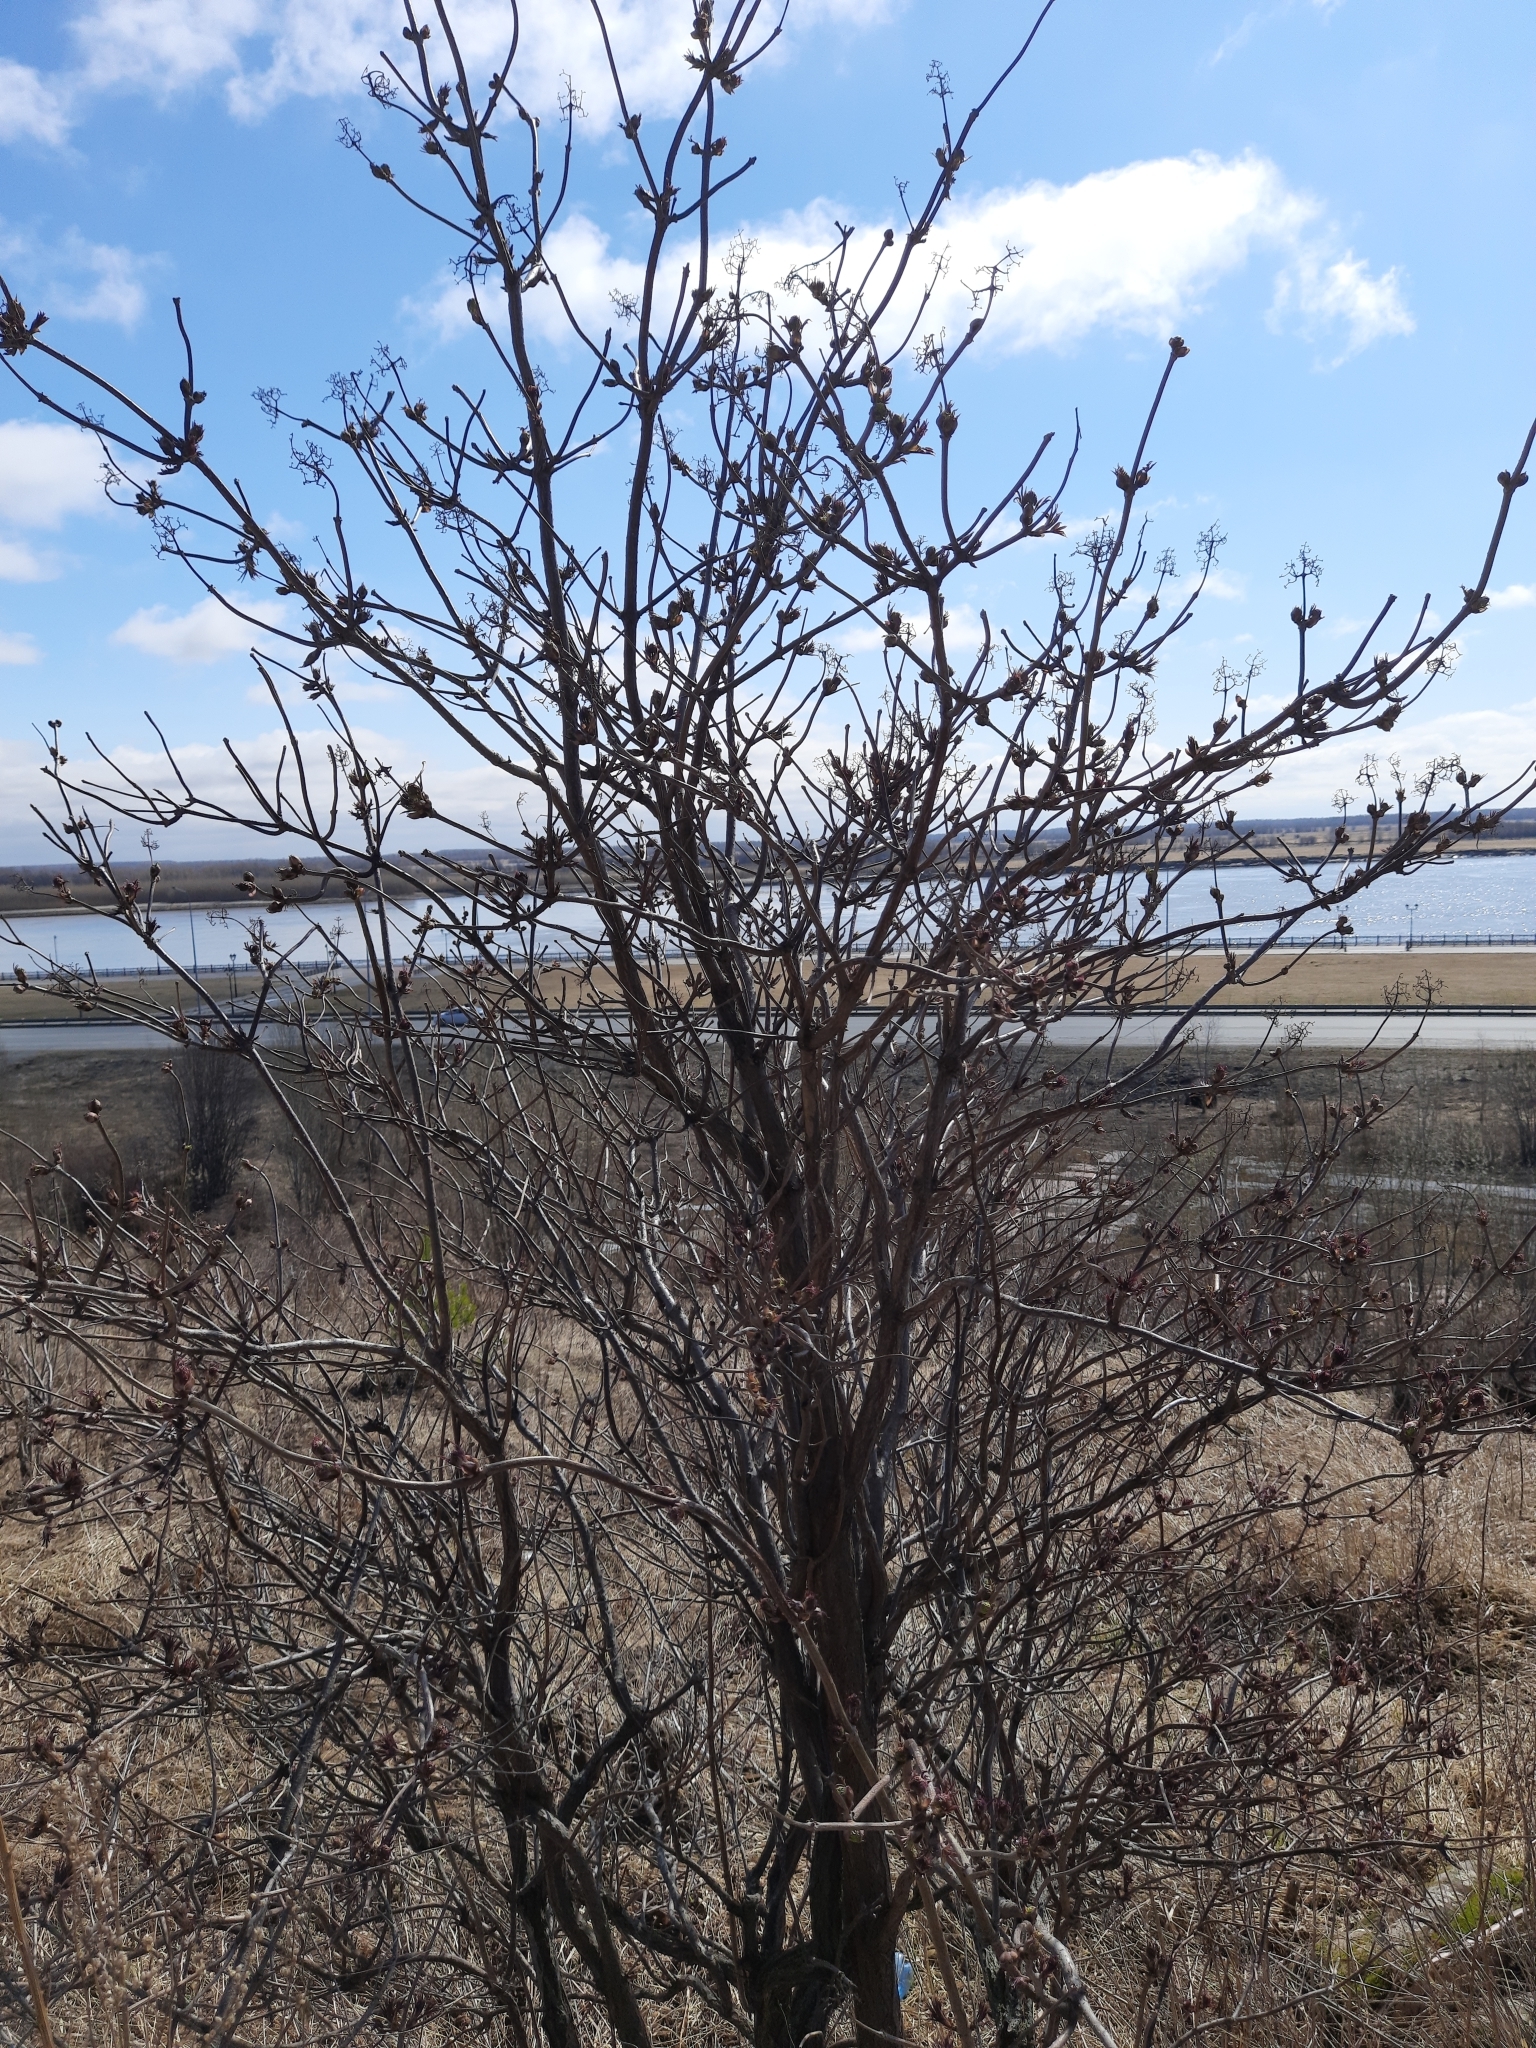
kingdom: Plantae
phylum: Tracheophyta
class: Magnoliopsida
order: Dipsacales
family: Viburnaceae
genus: Sambucus
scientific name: Sambucus sibirica
